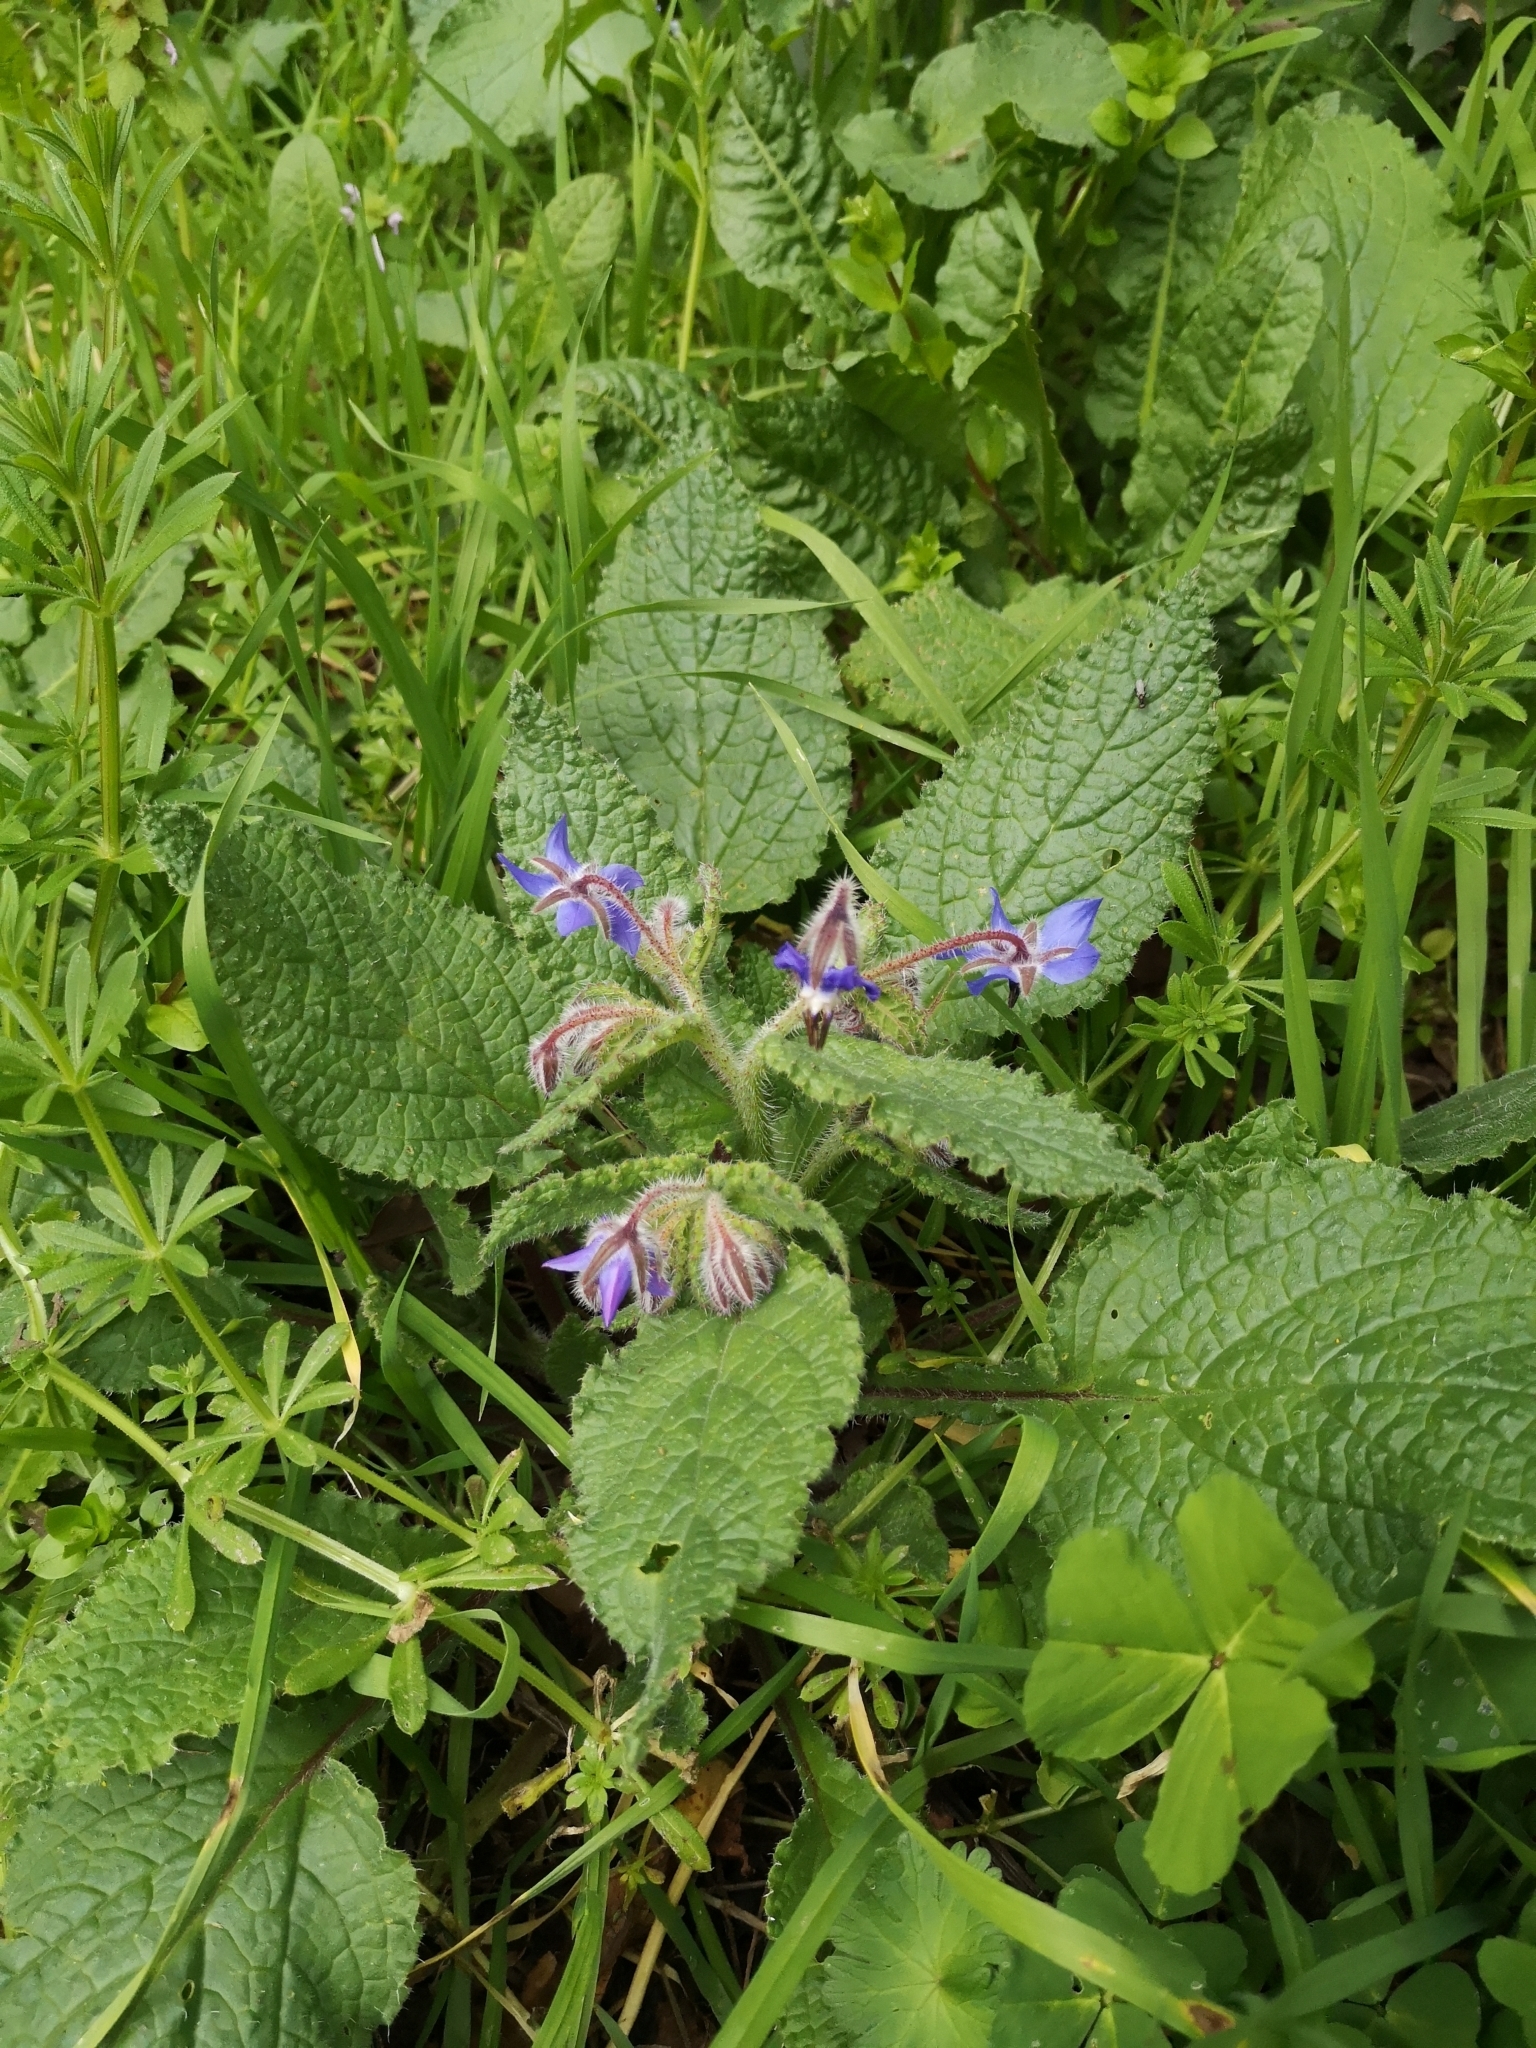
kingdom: Plantae
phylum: Tracheophyta
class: Magnoliopsida
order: Boraginales
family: Boraginaceae
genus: Borago
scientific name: Borago officinalis
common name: Borage
